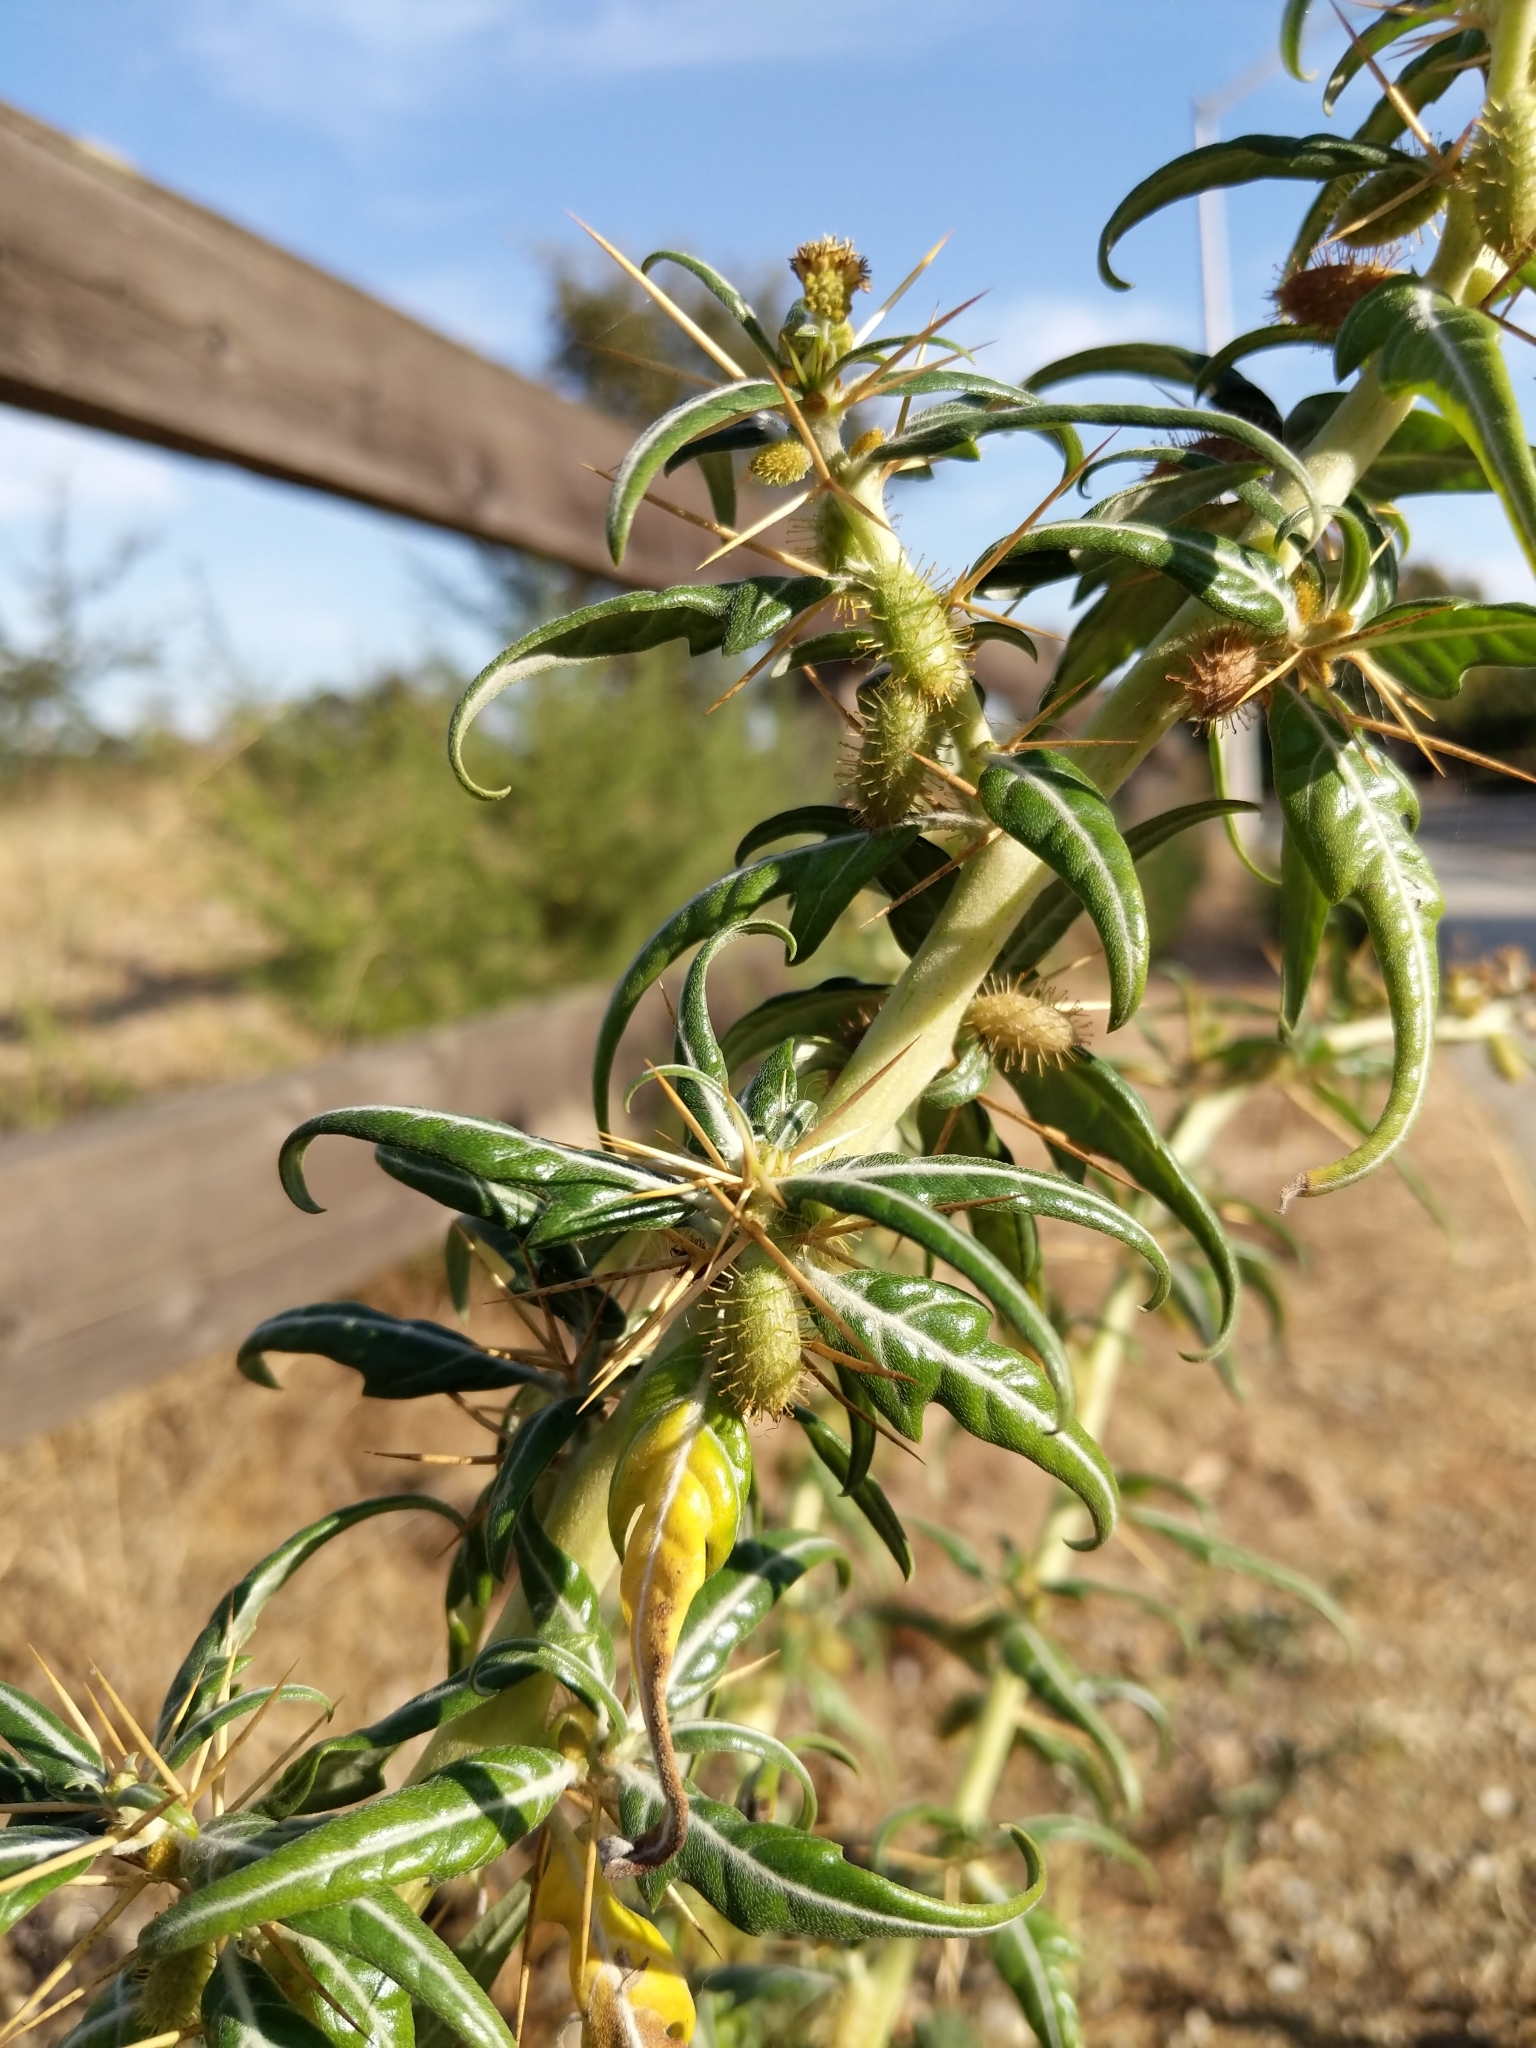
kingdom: Plantae
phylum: Tracheophyta
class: Magnoliopsida
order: Asterales
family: Asteraceae
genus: Xanthium
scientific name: Xanthium spinosum
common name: Spiny cocklebur
